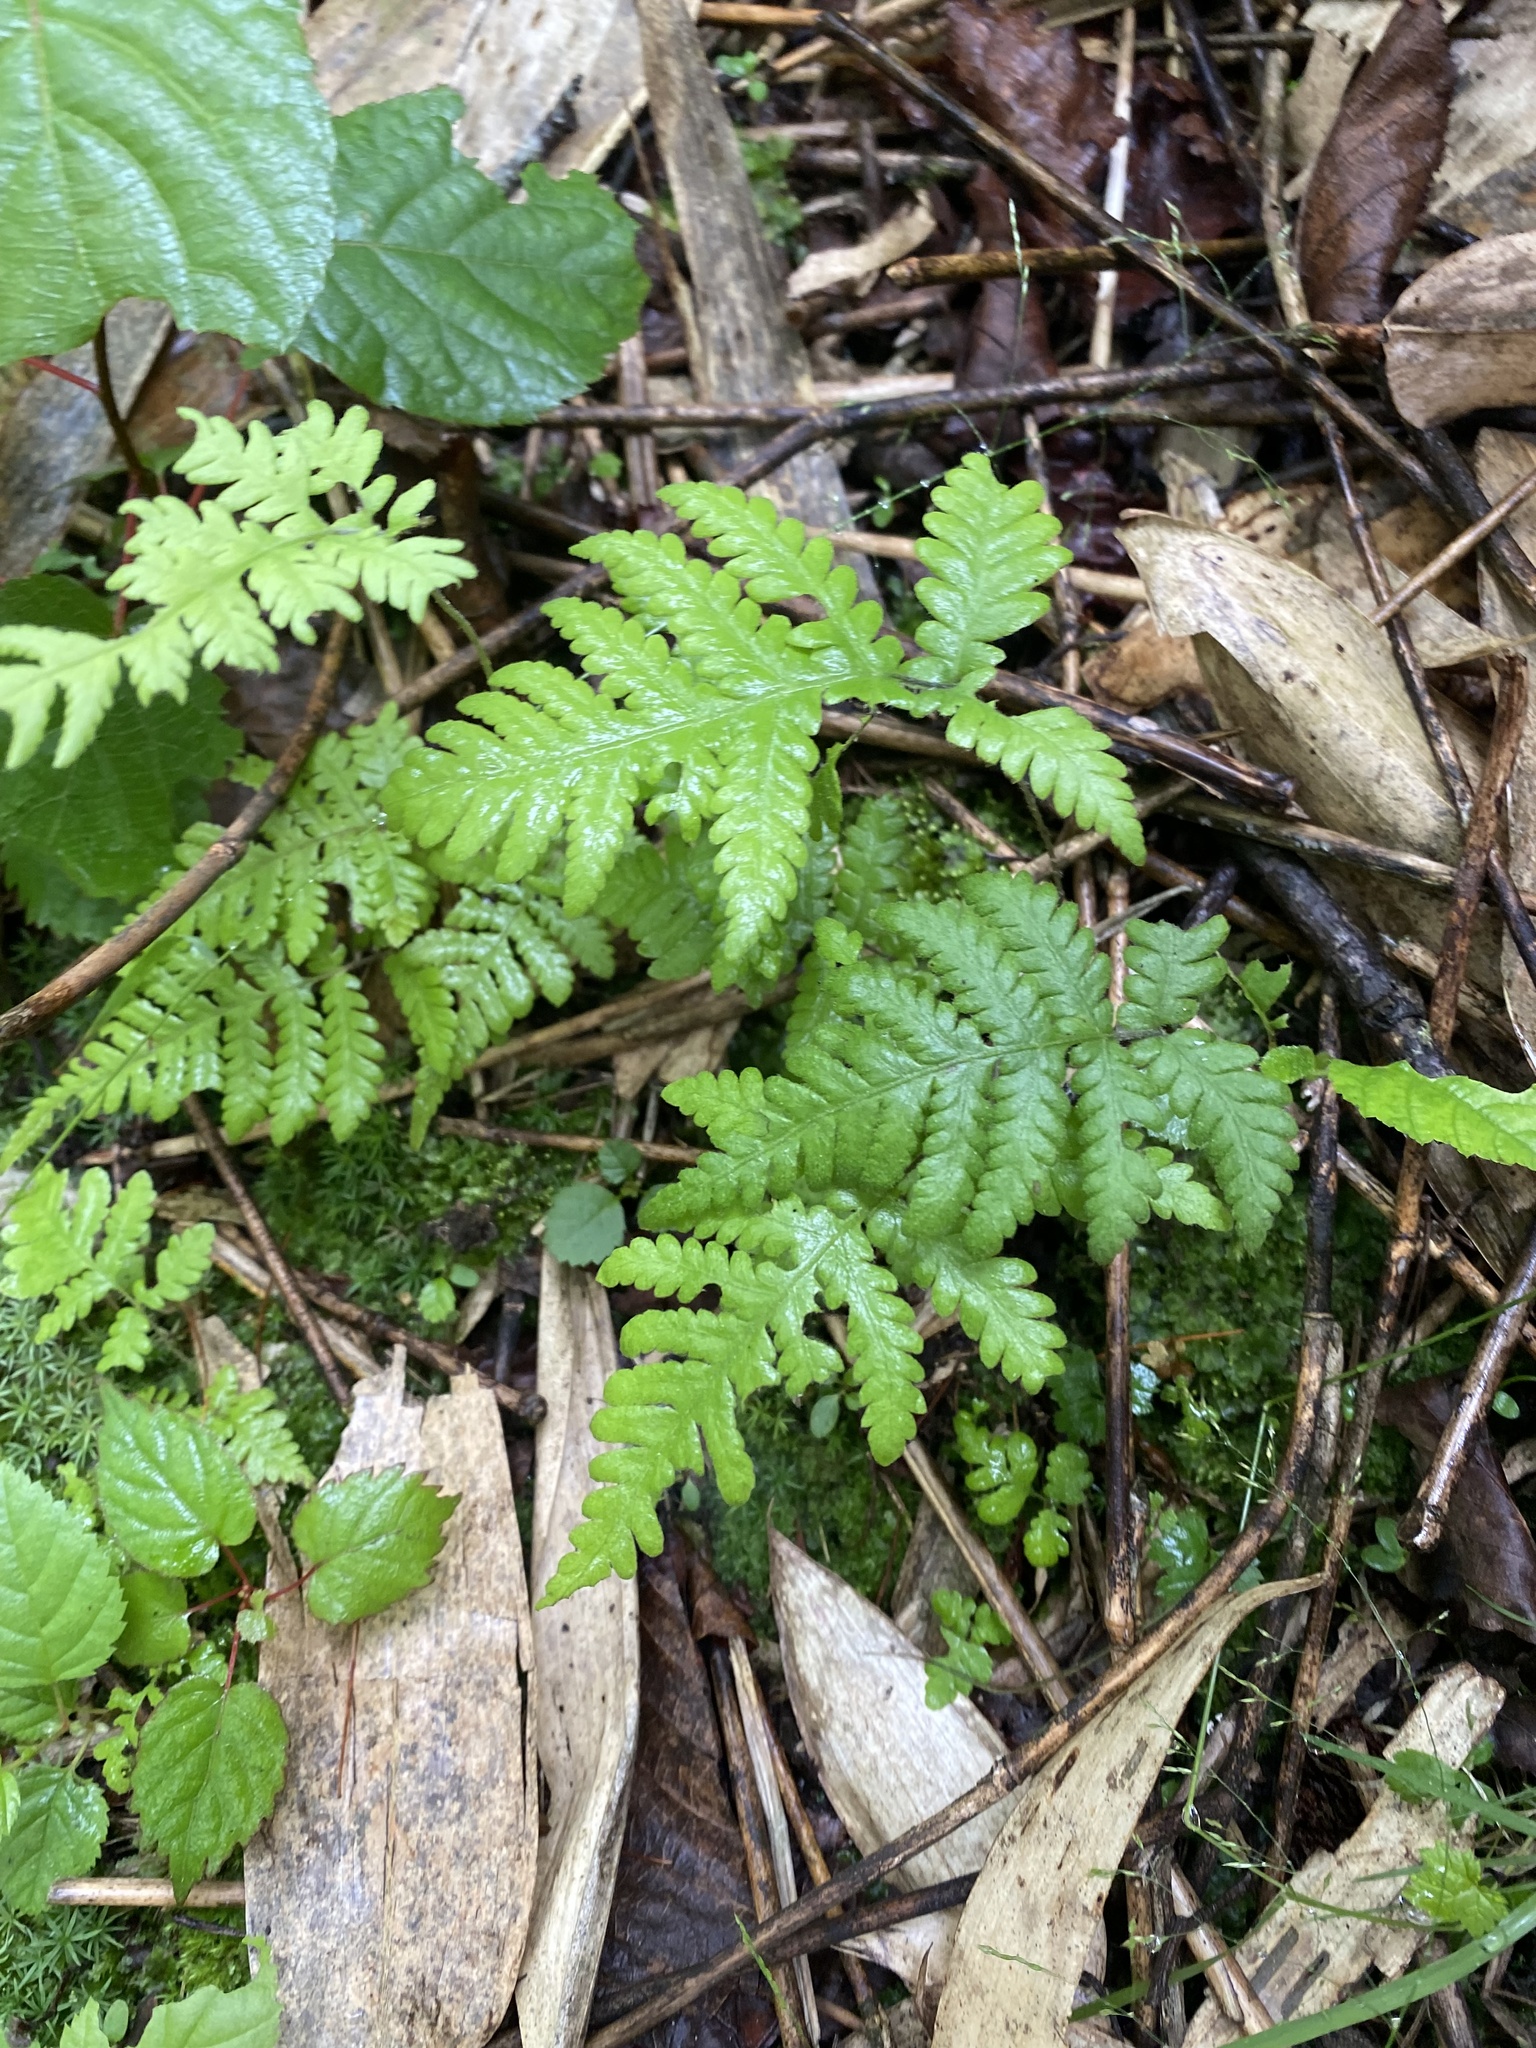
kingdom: Plantae
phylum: Tracheophyta
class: Polypodiopsida
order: Polypodiales
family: Thelypteridaceae
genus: Phegopteris
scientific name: Phegopteris connectilis
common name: Beech fern
